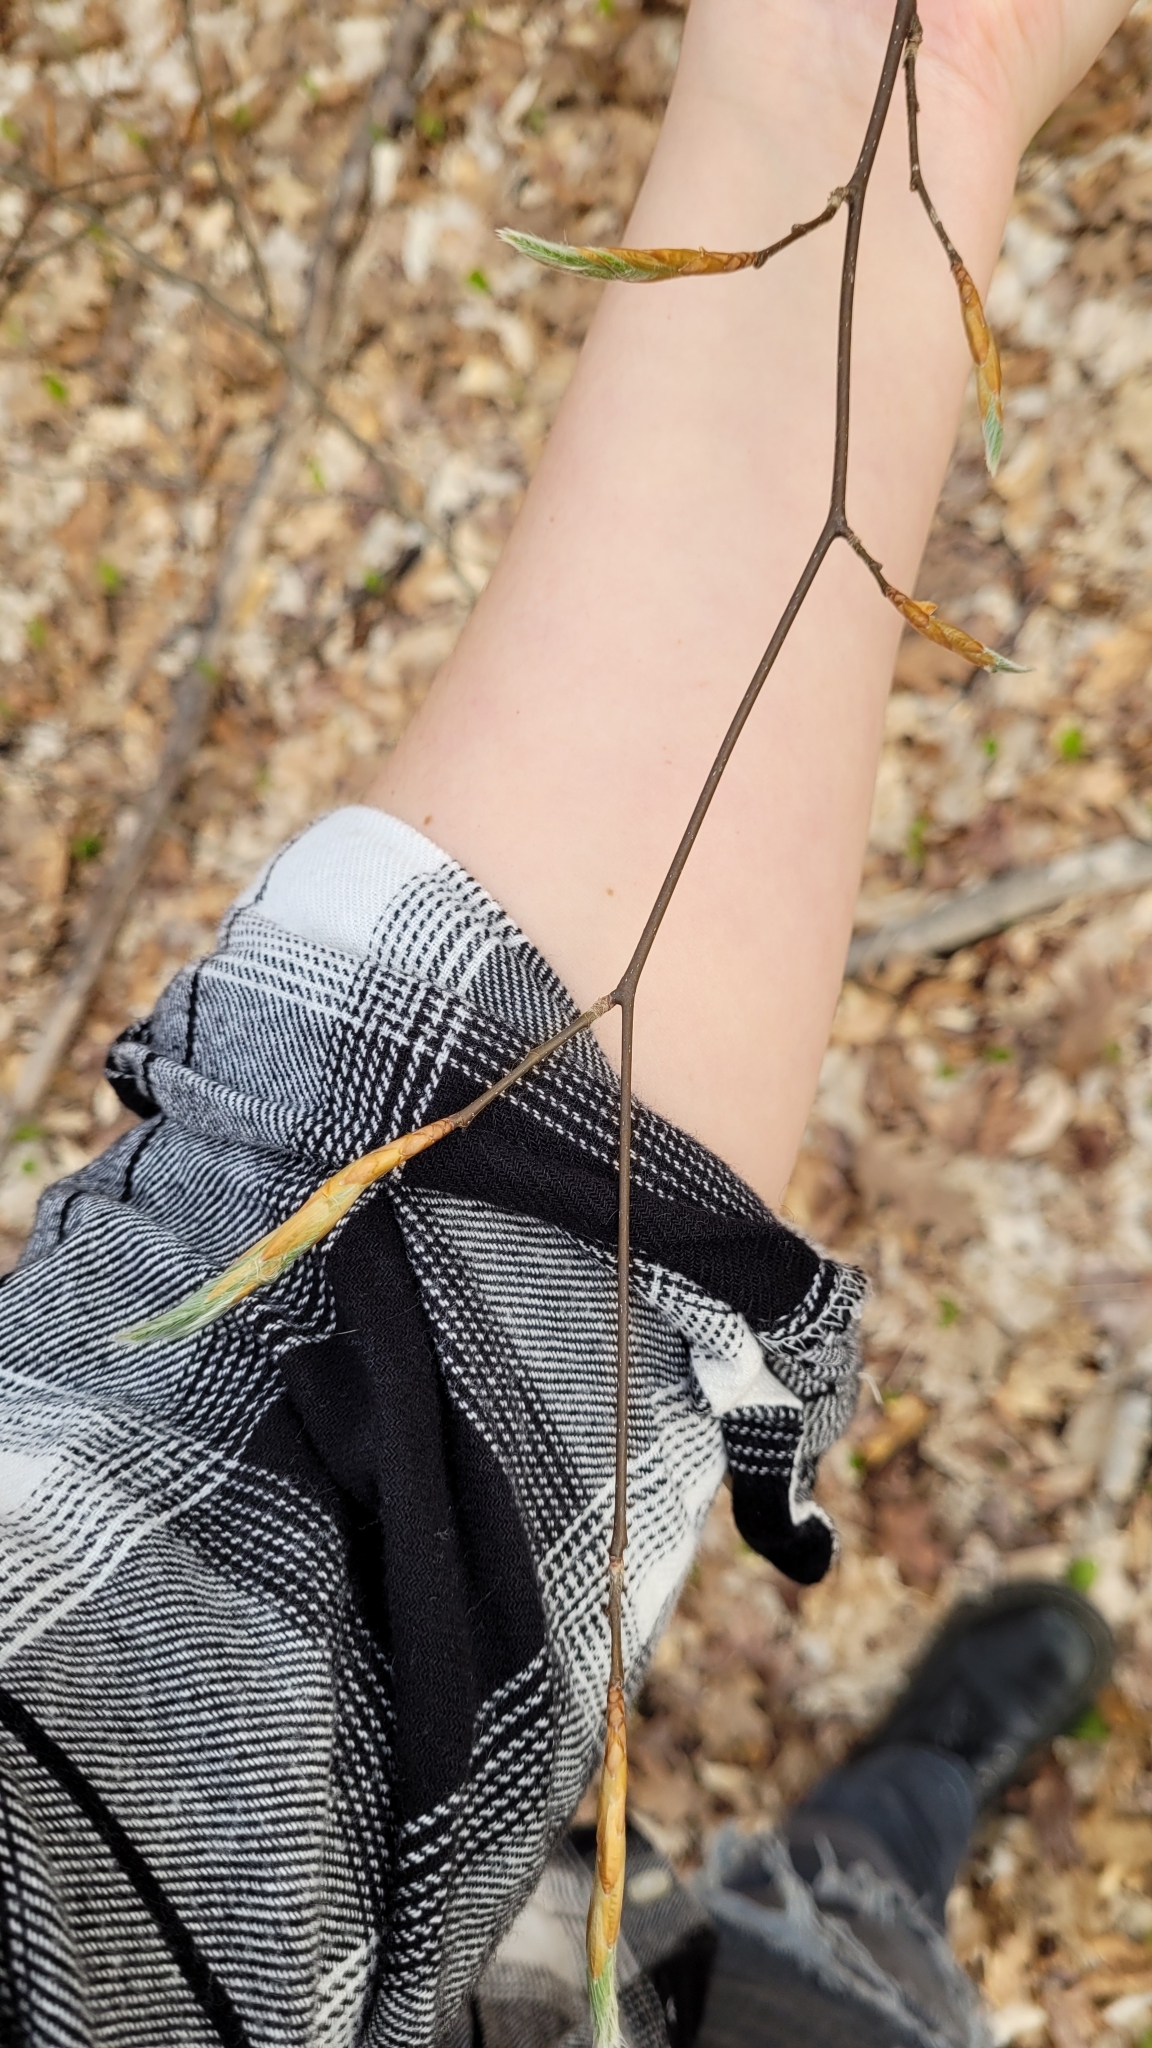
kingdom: Plantae
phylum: Tracheophyta
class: Magnoliopsida
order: Fagales
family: Fagaceae
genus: Fagus
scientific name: Fagus grandifolia
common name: American beech
